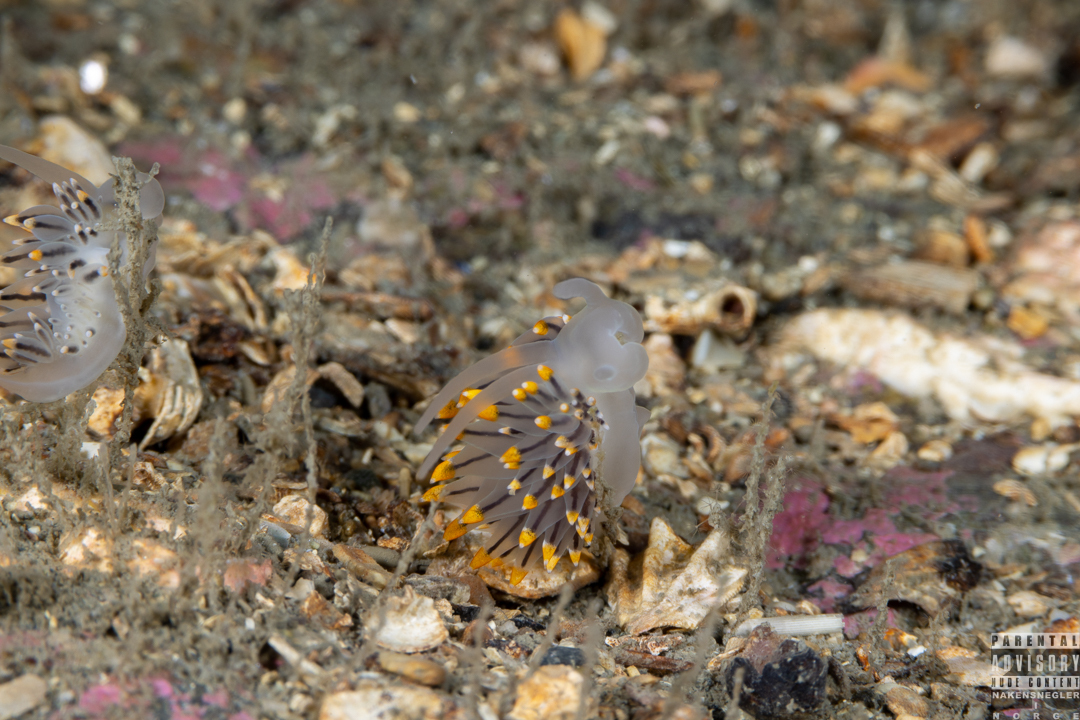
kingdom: Animalia
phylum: Mollusca
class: Gastropoda
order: Nudibranchia
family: Eubranchidae
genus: Eubranchus
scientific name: Eubranchus tricolor
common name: Painted balloon aeolis
